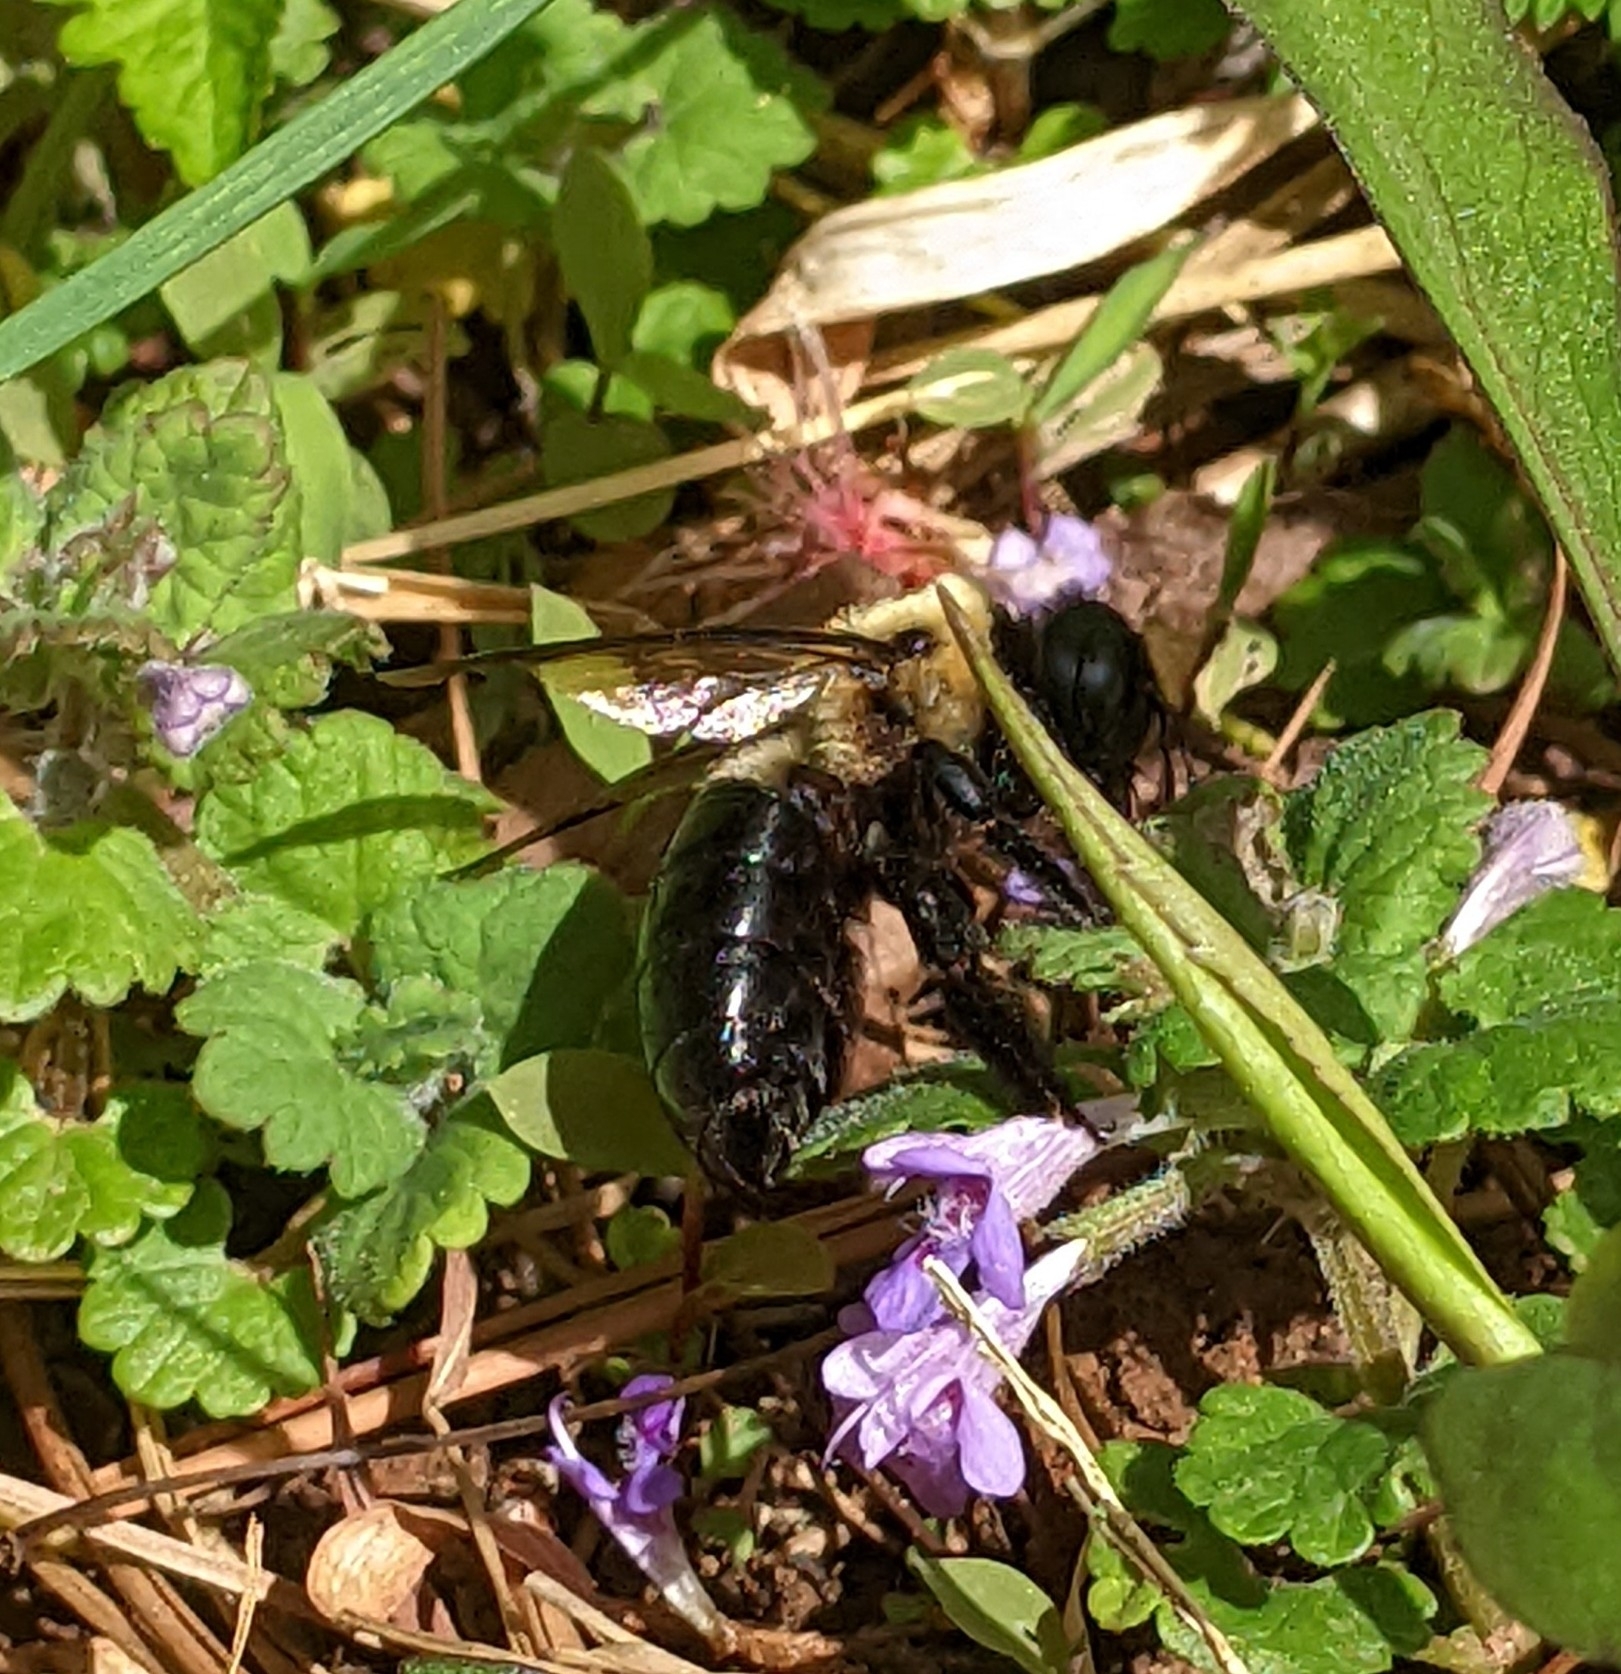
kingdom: Animalia
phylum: Arthropoda
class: Insecta
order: Hymenoptera
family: Apidae
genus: Xylocopa
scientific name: Xylocopa virginica
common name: Carpenter bee
